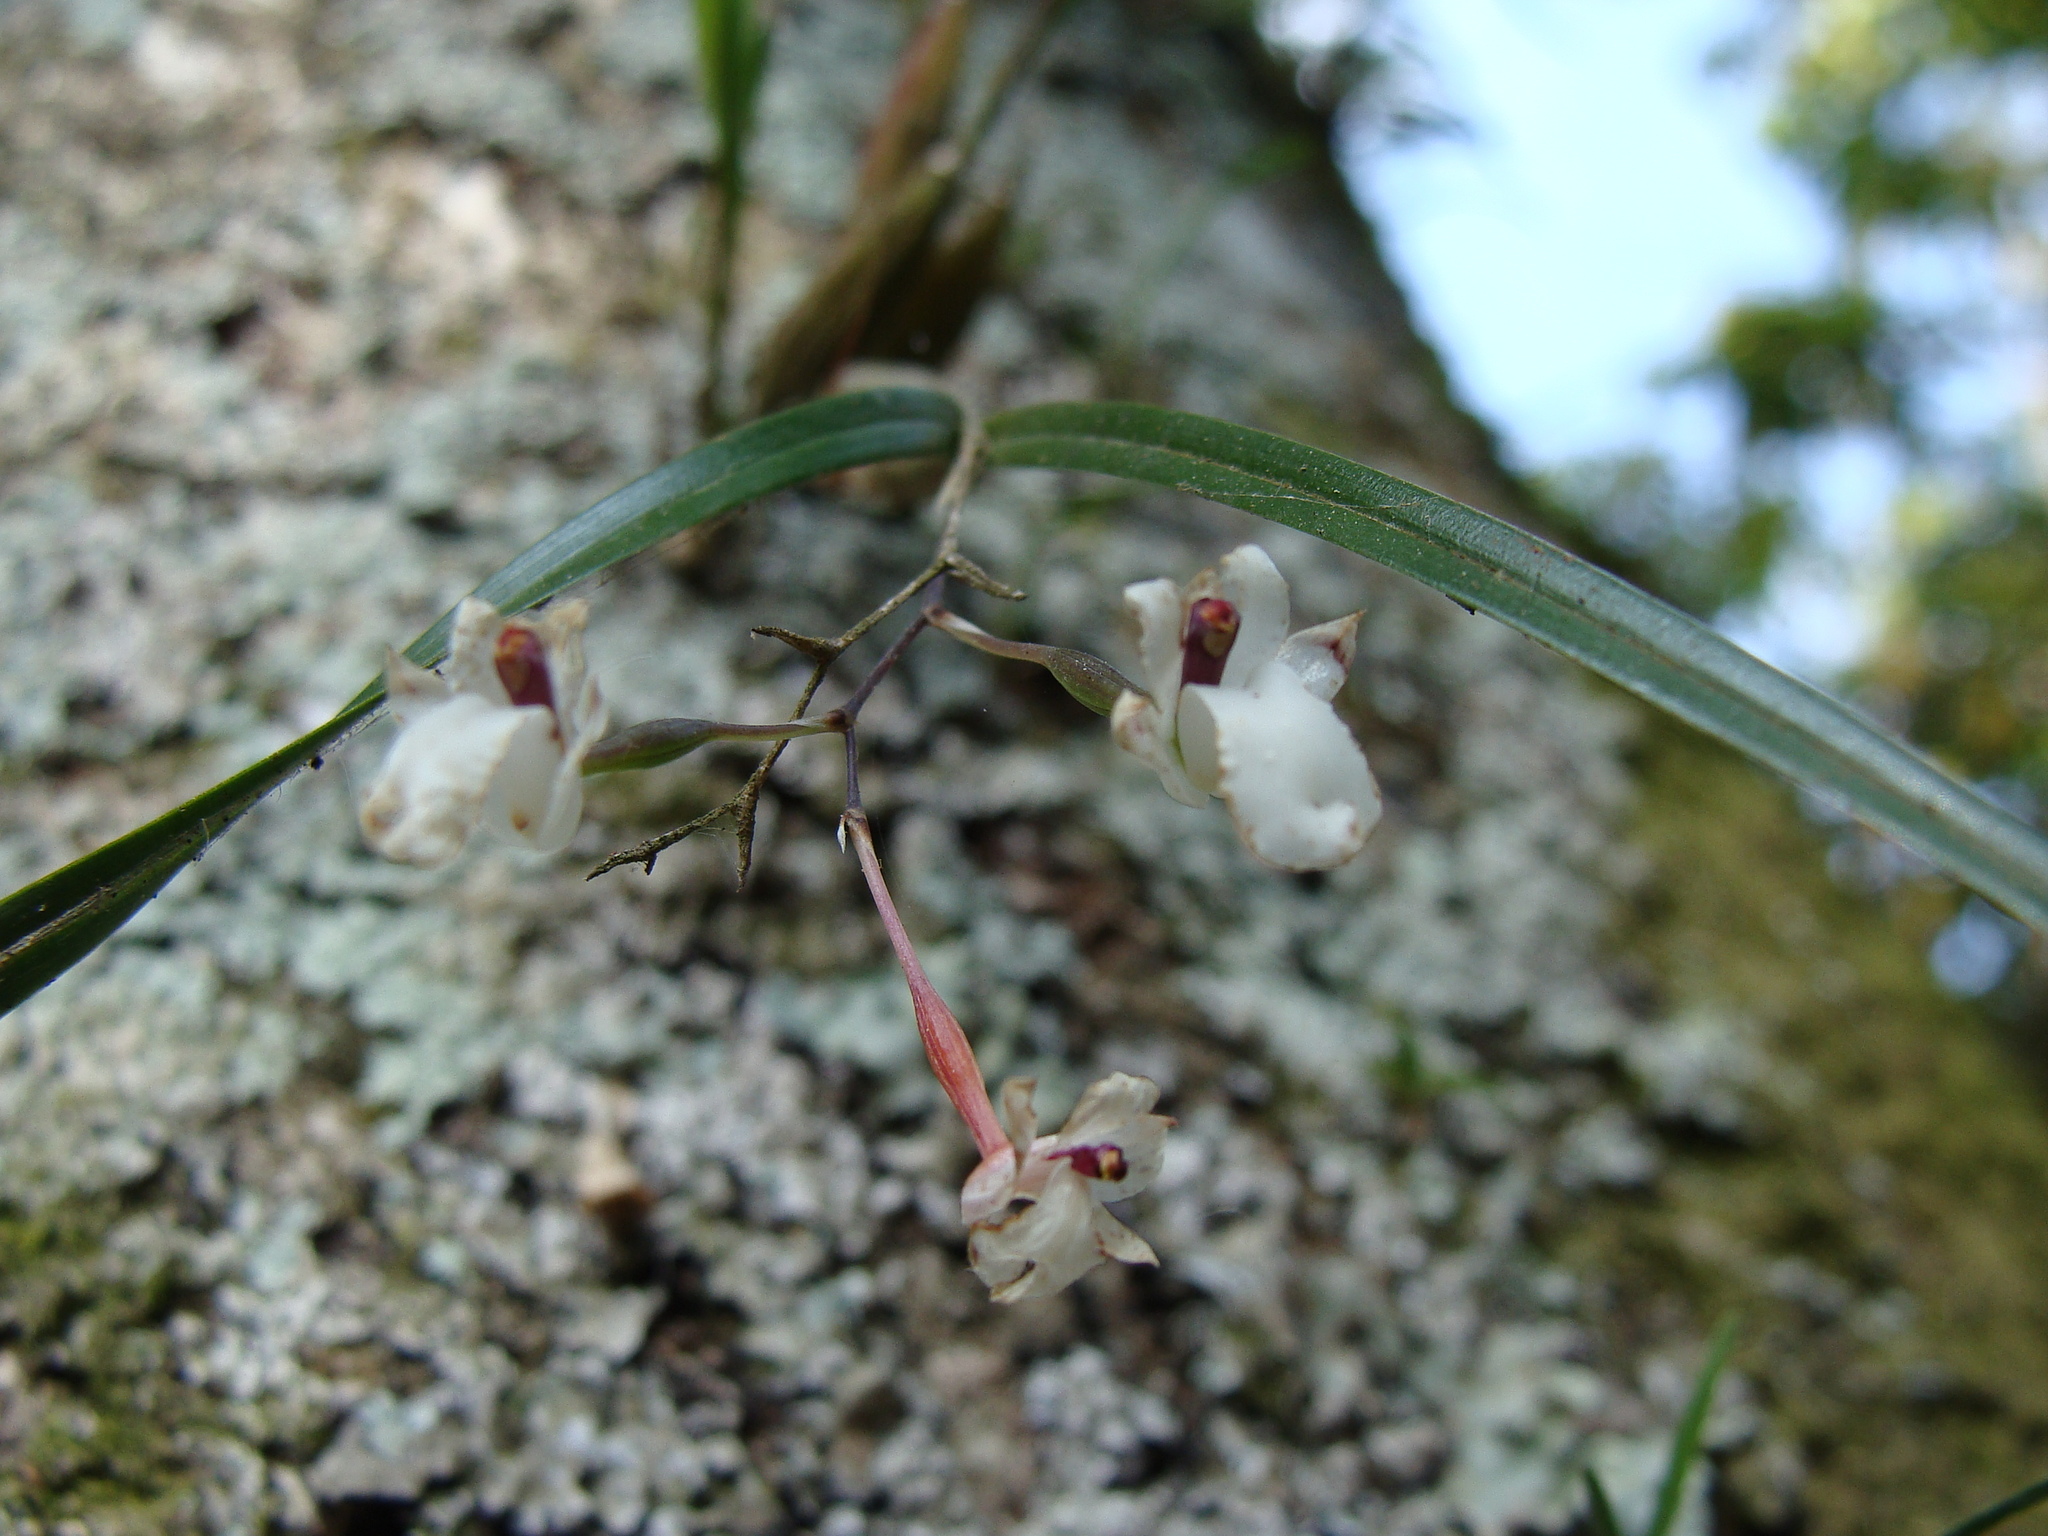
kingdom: Plantae
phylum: Tracheophyta
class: Liliopsida
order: Asparagales
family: Orchidaceae
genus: Scaphyglottis
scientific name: Scaphyglottis crurigera
